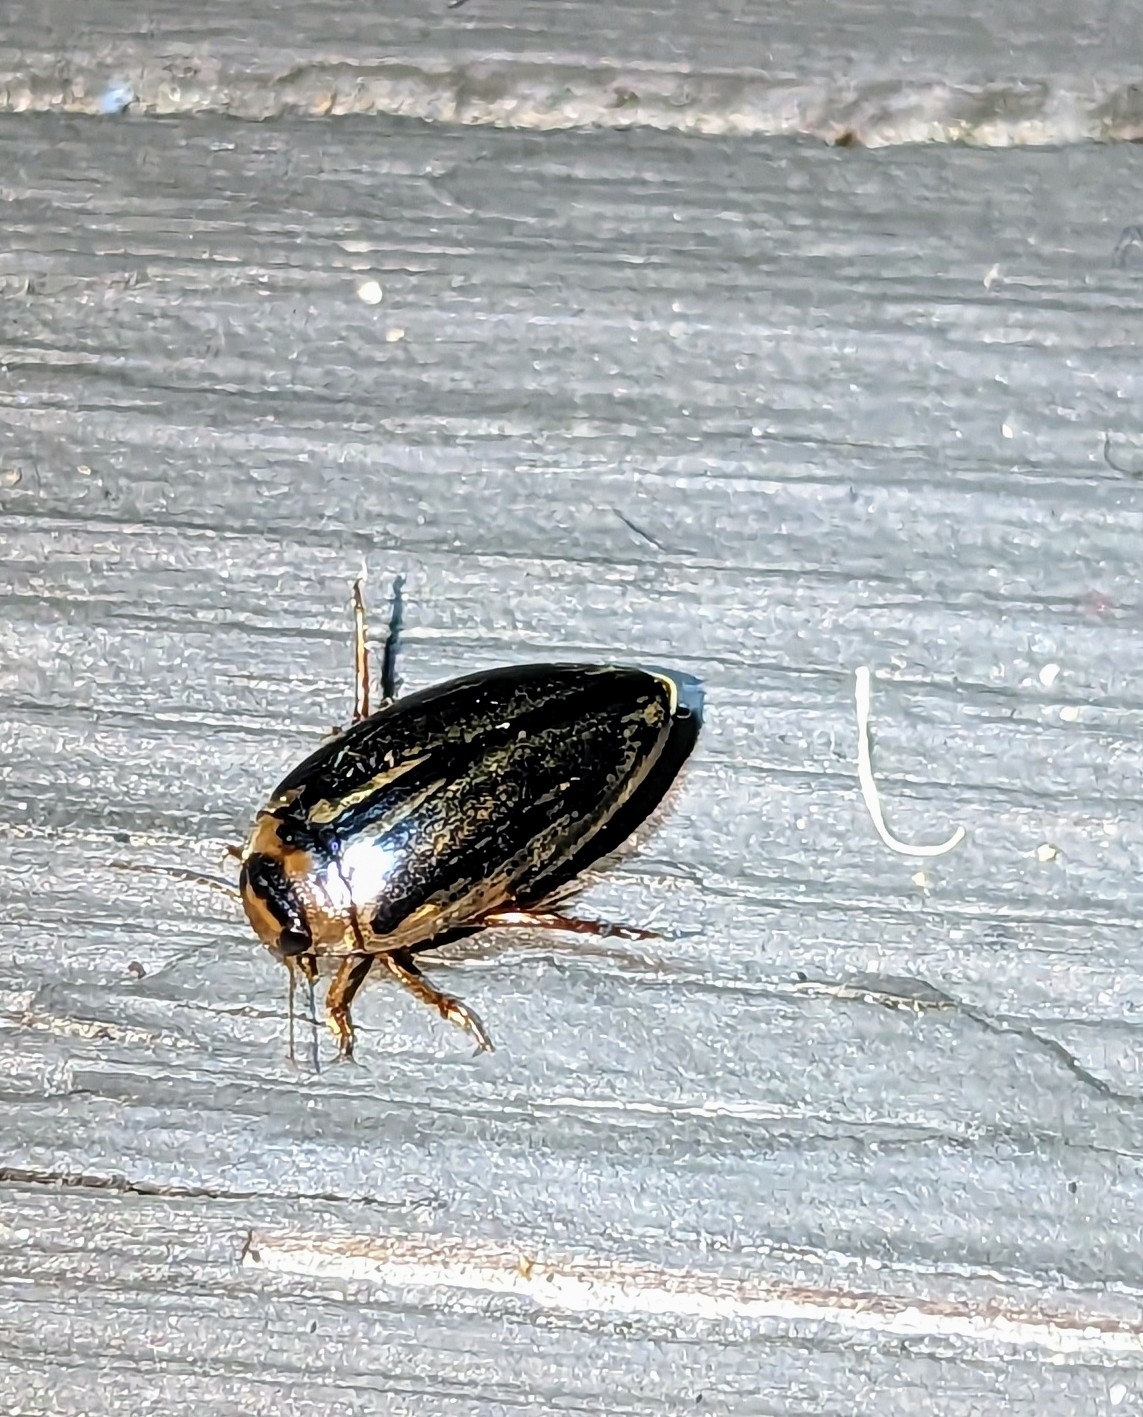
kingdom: Animalia
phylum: Arthropoda
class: Insecta
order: Coleoptera
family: Dytiscidae
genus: Coptotomus
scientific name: Coptotomus longulus
